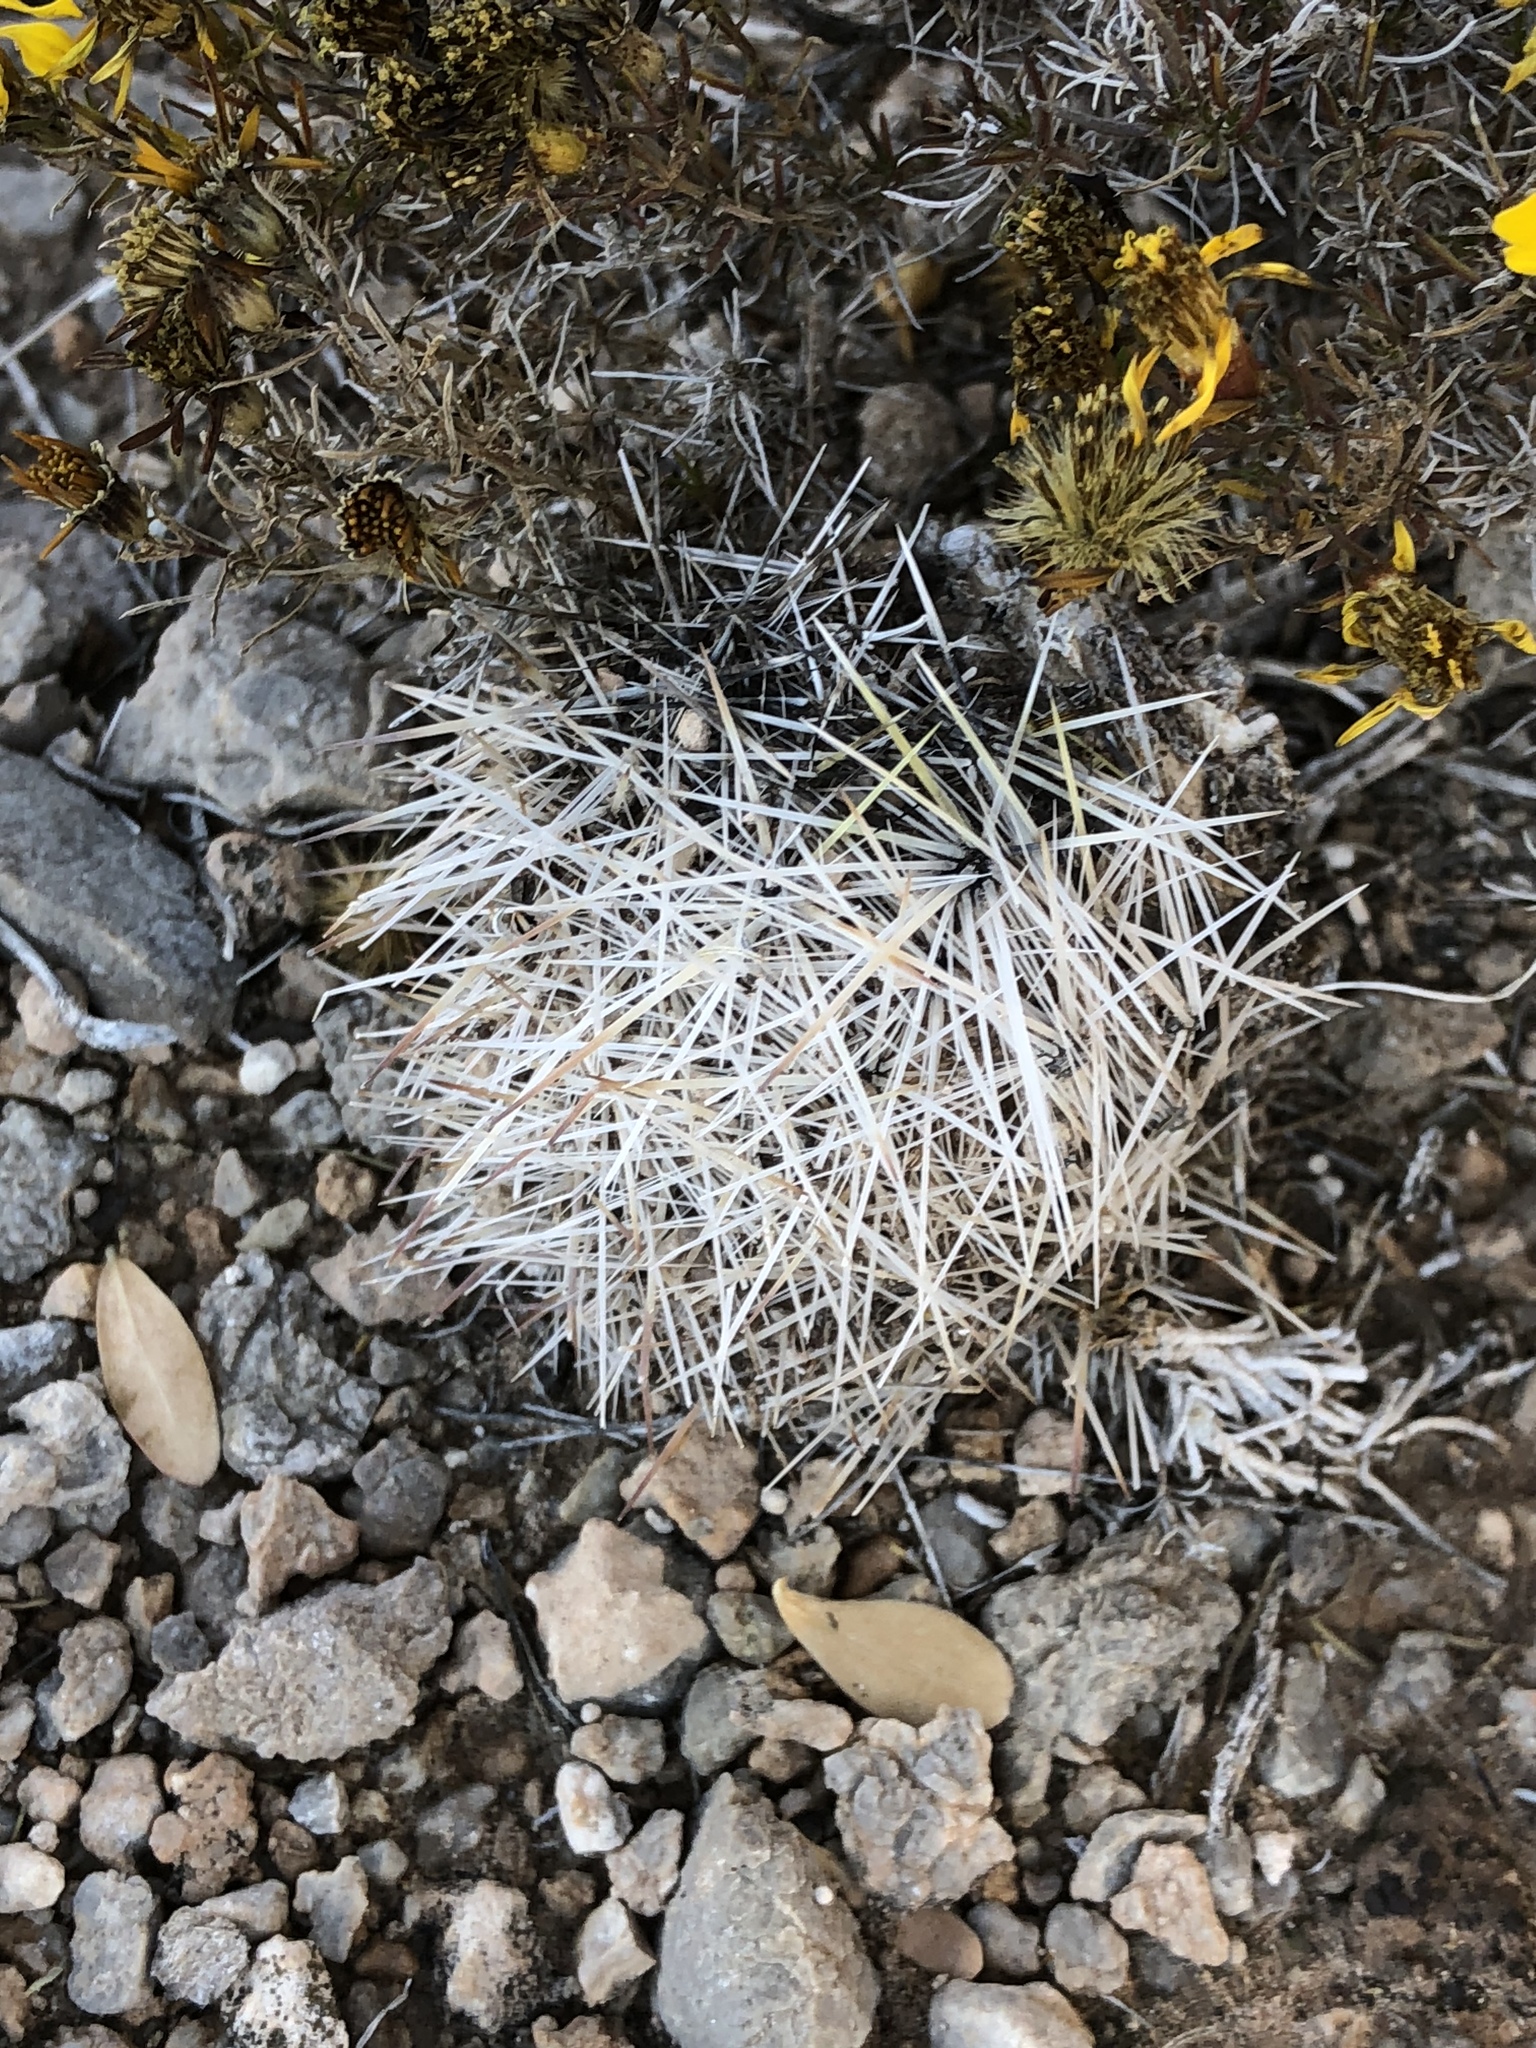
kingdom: Plantae
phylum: Tracheophyta
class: Magnoliopsida
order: Caryophyllales
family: Cactaceae
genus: Pelecyphora
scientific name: Pelecyphora vivipara
